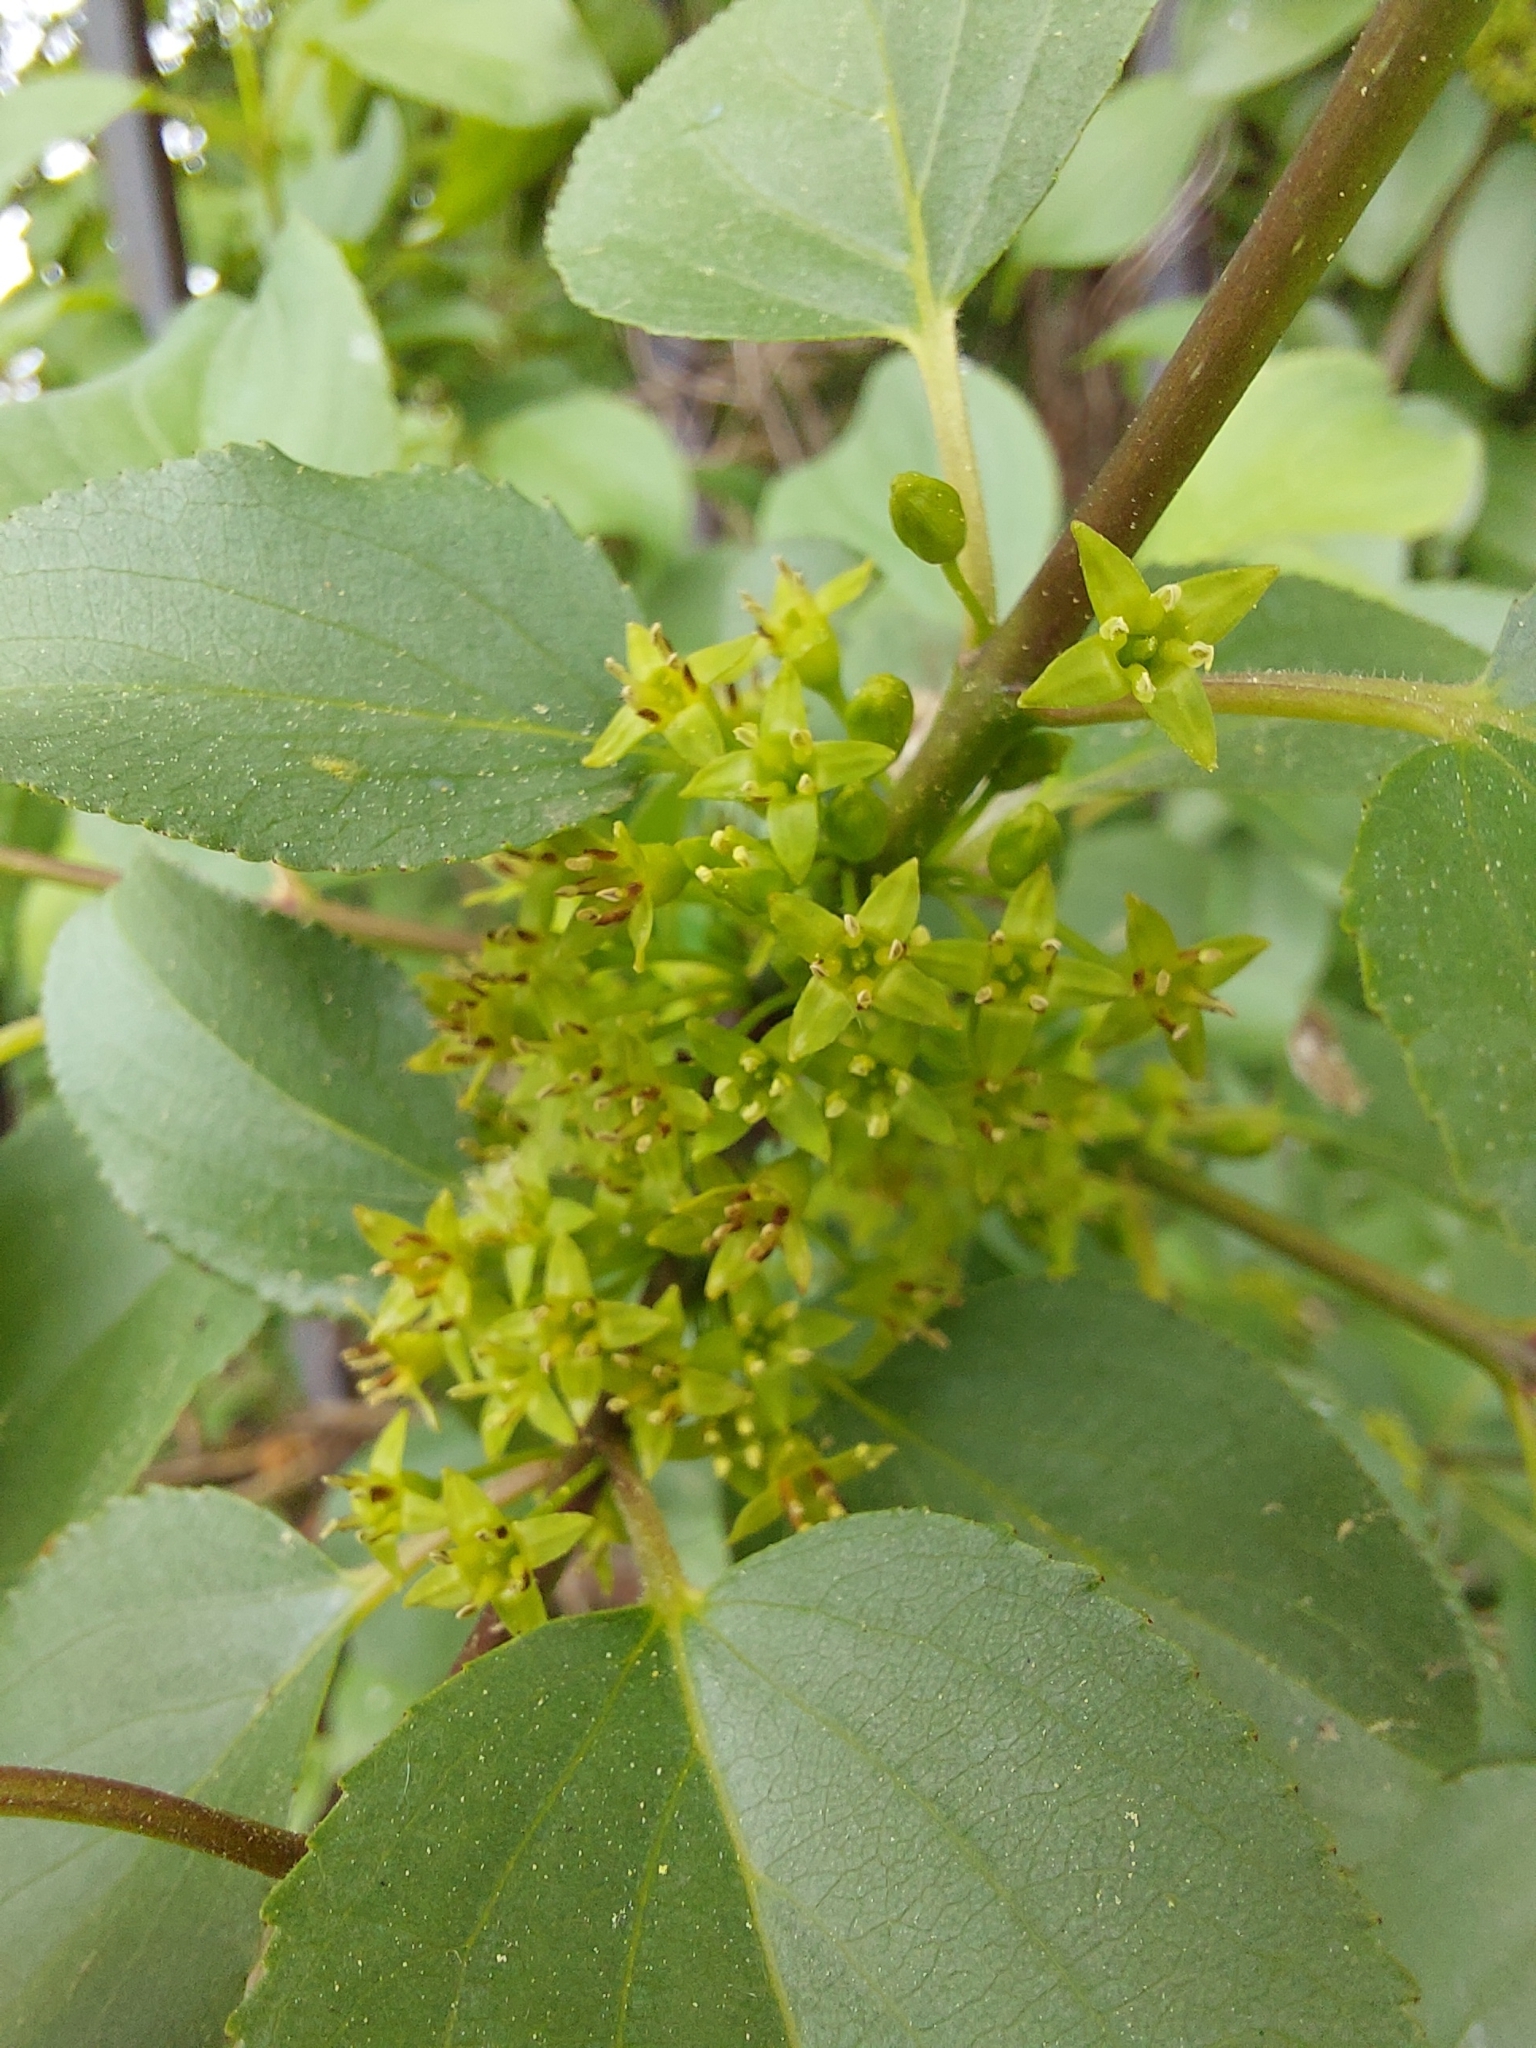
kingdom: Plantae
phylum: Tracheophyta
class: Magnoliopsida
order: Rosales
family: Rhamnaceae
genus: Rhamnus
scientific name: Rhamnus cathartica
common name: Common buckthorn
